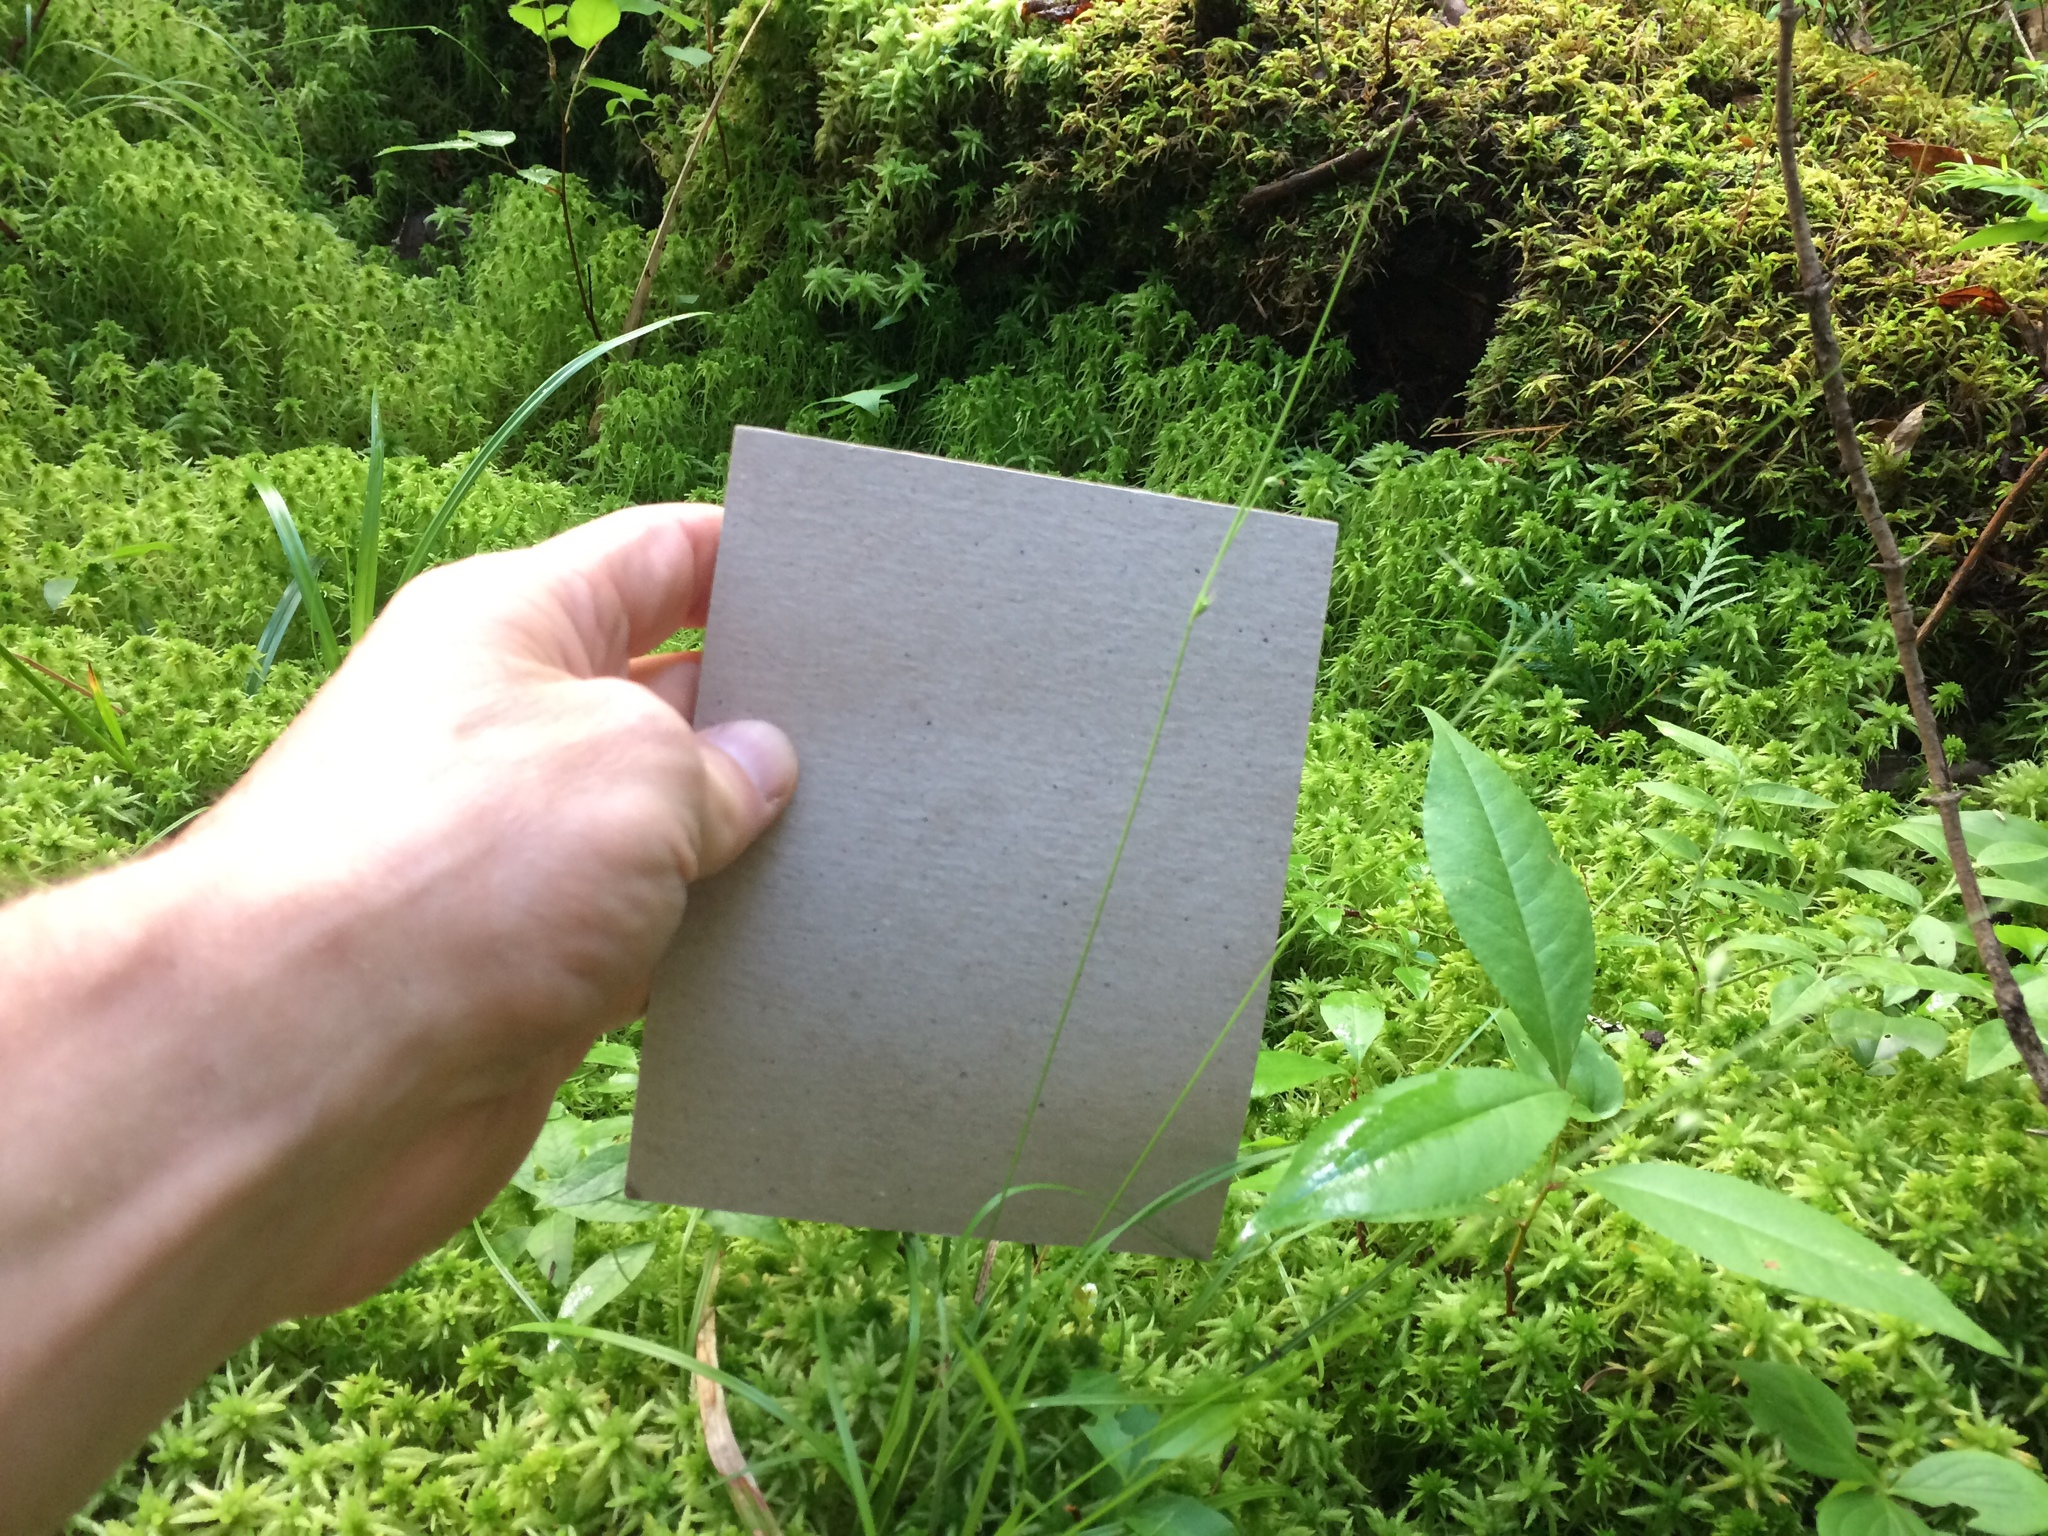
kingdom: Plantae
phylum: Tracheophyta
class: Liliopsida
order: Poales
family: Cyperaceae
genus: Carex
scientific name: Carex trisperma
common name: Three-seeded sedge
